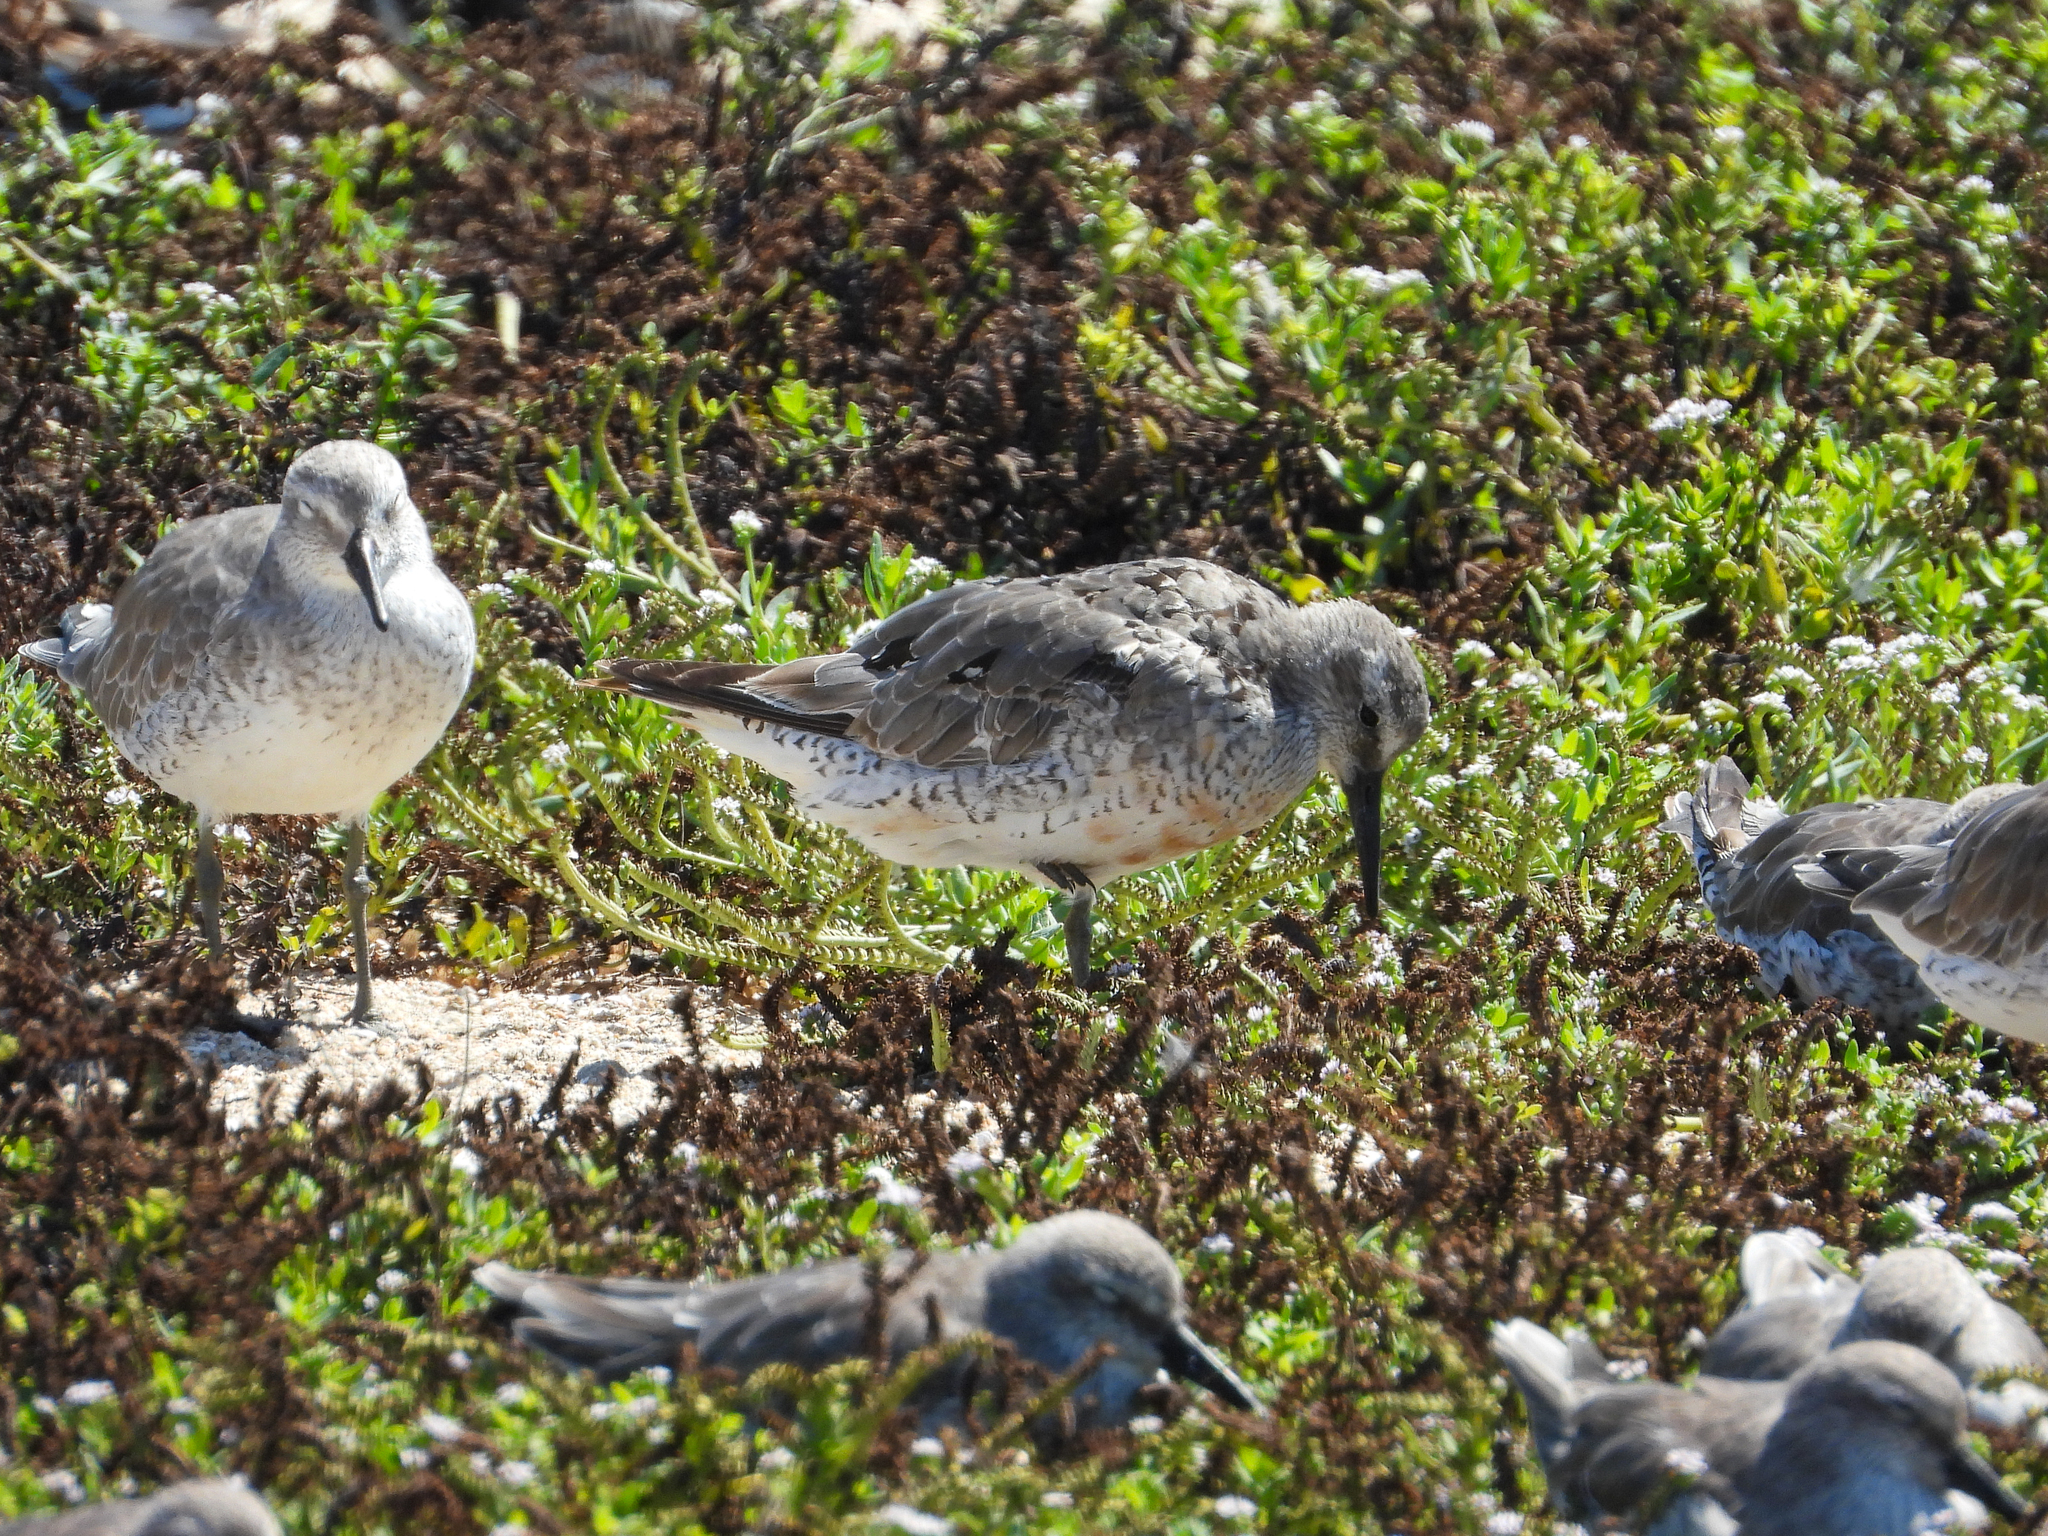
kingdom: Animalia
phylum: Chordata
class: Aves
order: Charadriiformes
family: Scolopacidae
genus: Calidris
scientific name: Calidris canutus
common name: Red knot
